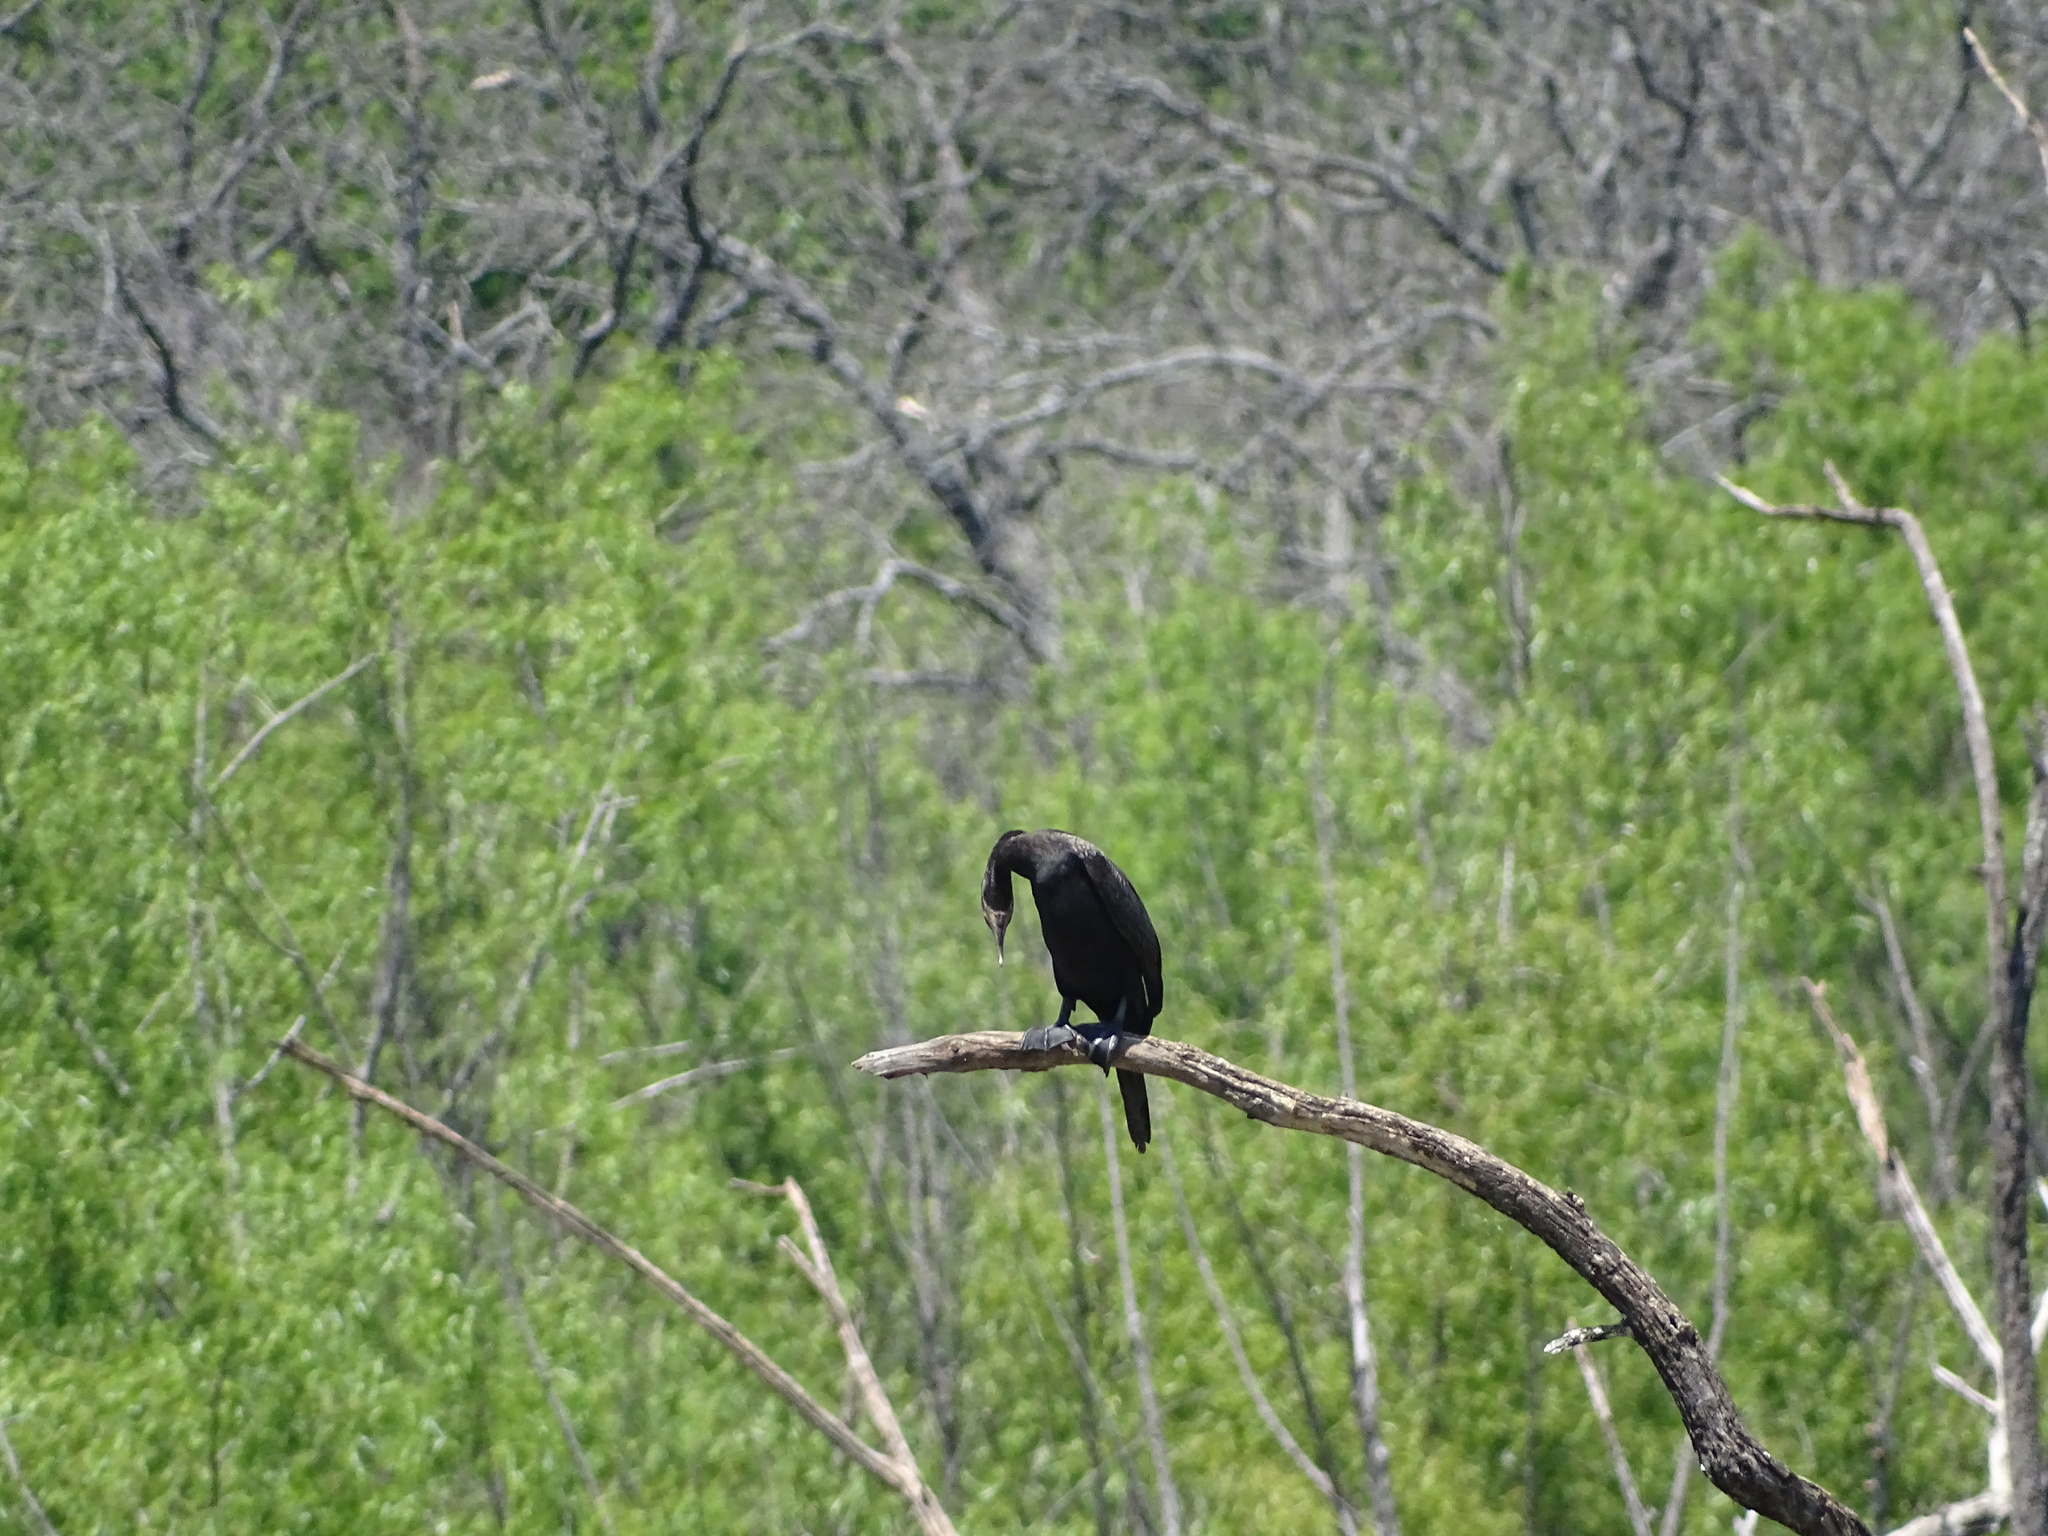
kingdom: Animalia
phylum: Chordata
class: Aves
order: Suliformes
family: Phalacrocoracidae
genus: Phalacrocorax
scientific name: Phalacrocorax brasilianus
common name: Neotropic cormorant
